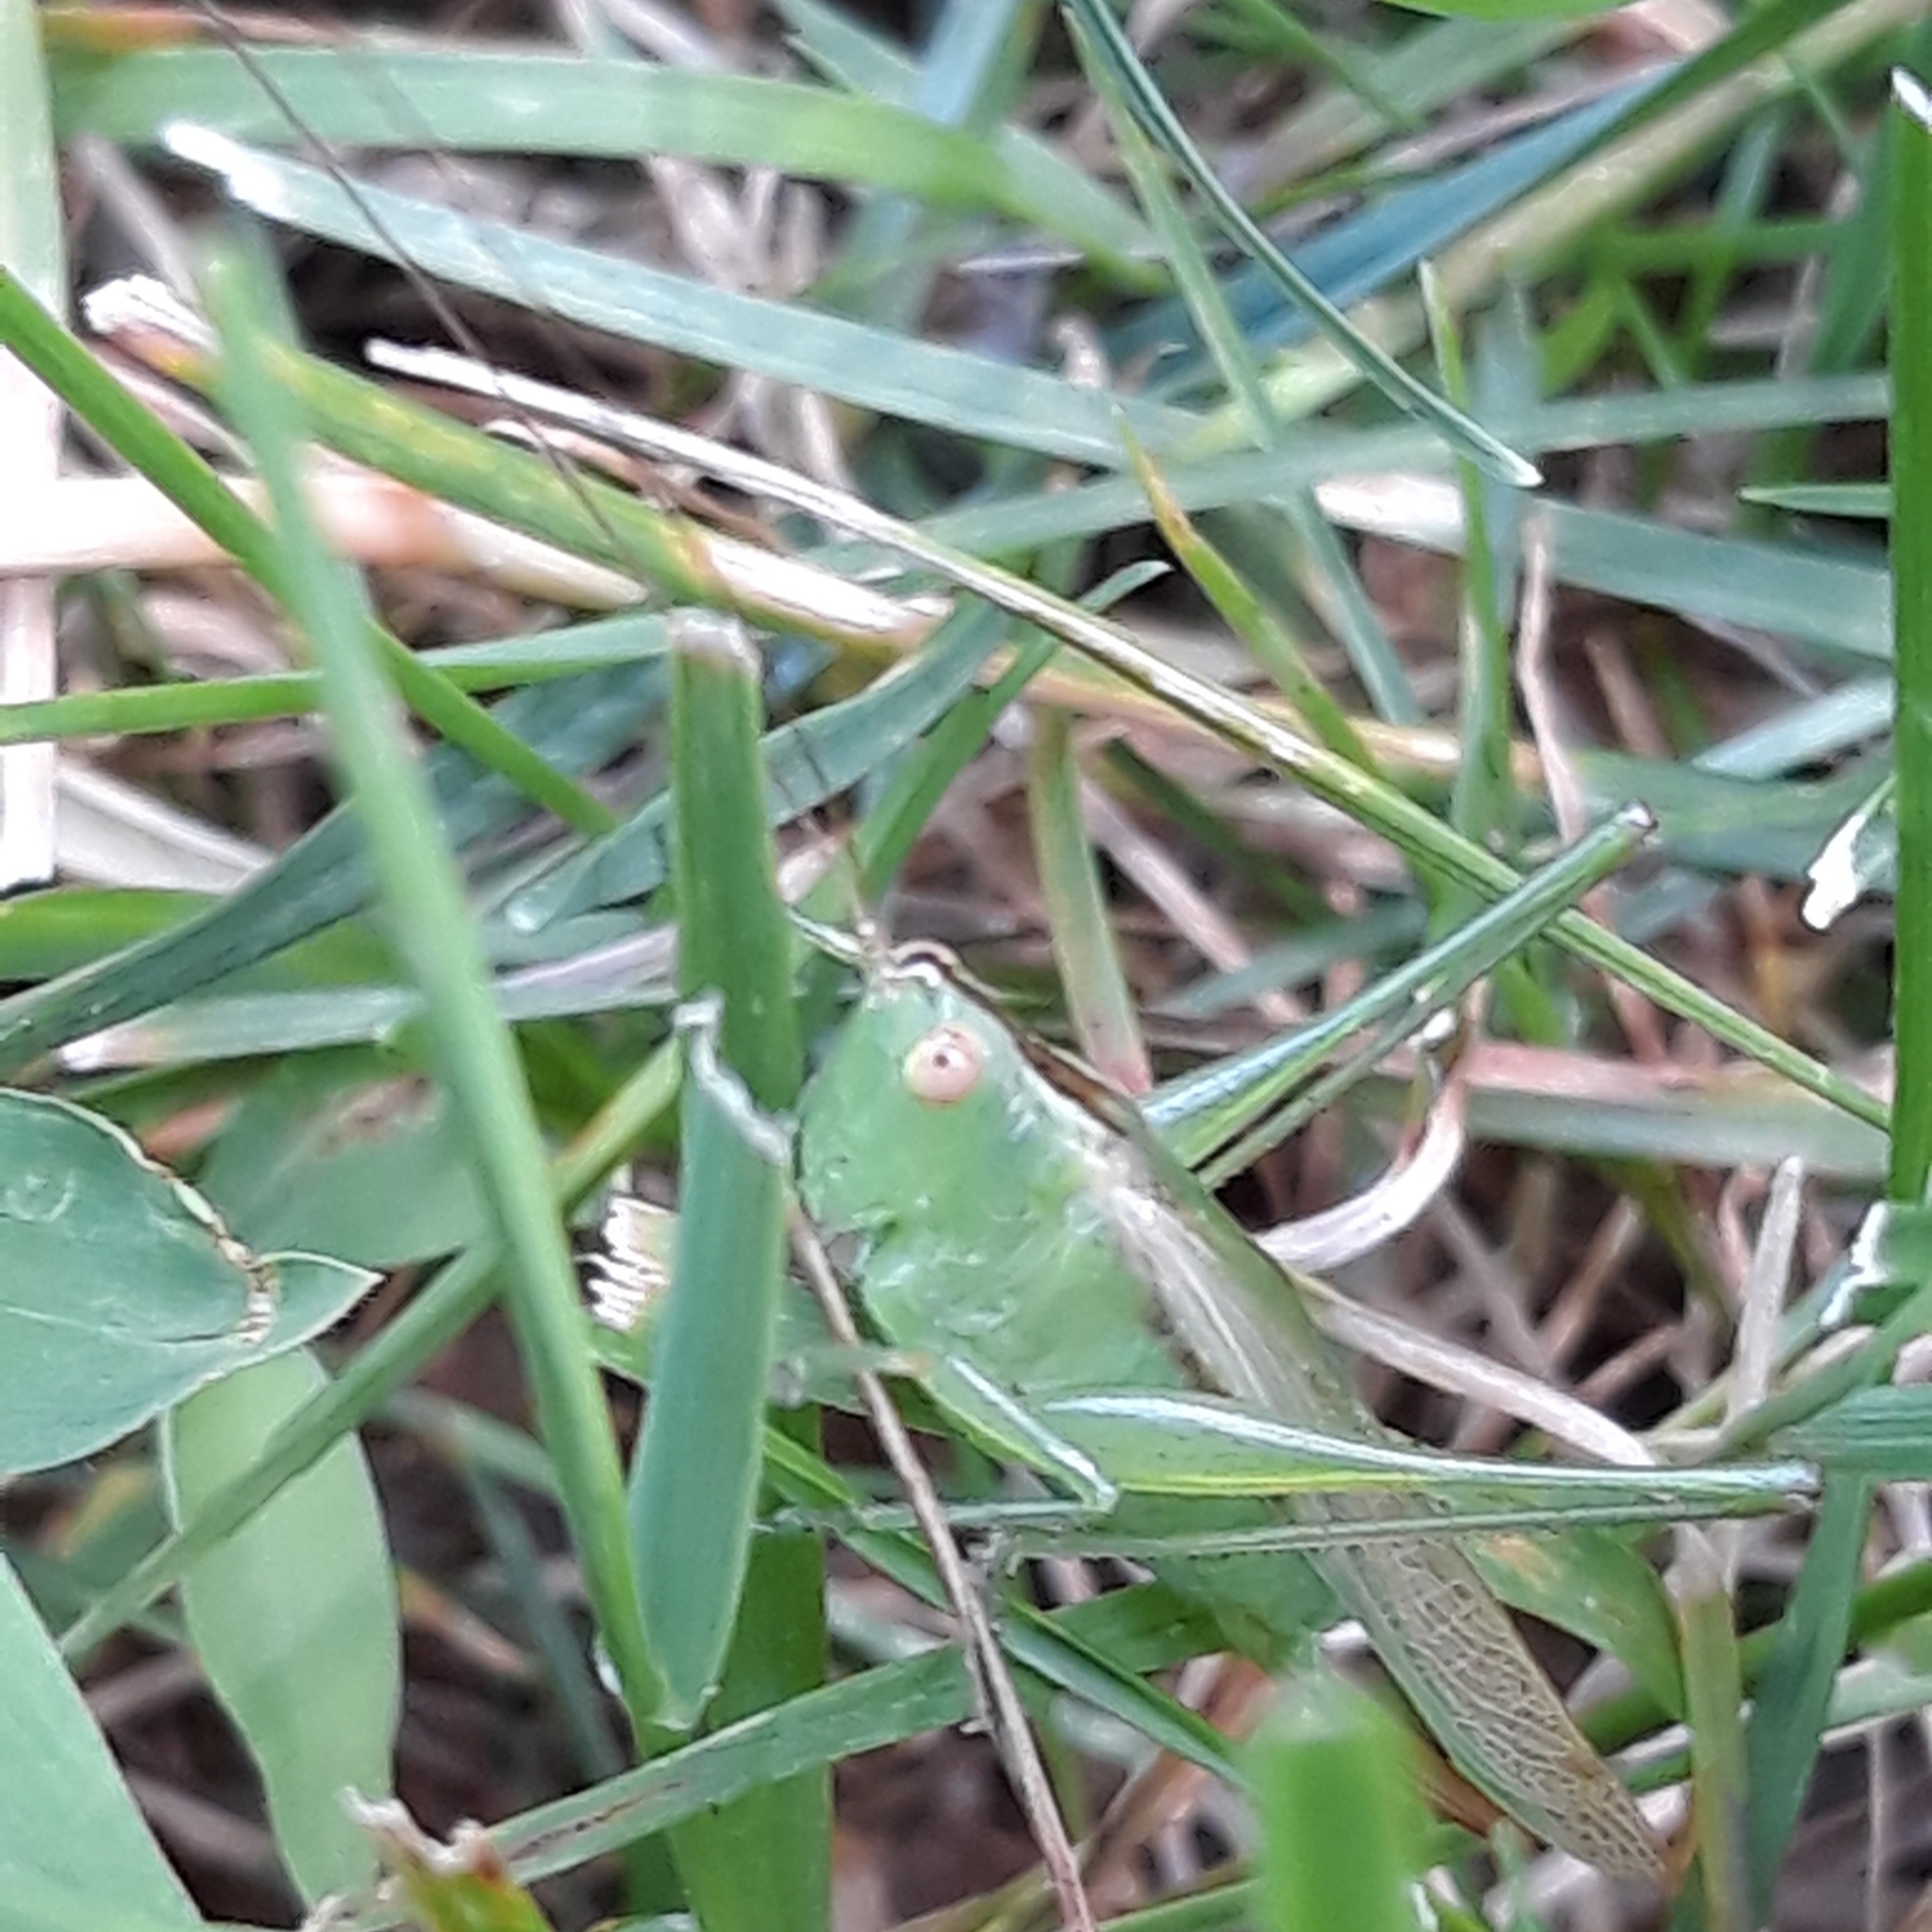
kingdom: Animalia
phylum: Arthropoda
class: Insecta
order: Orthoptera
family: Tettigoniidae
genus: Conocephalus
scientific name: Conocephalus fasciatus
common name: Slender meadow katydid
